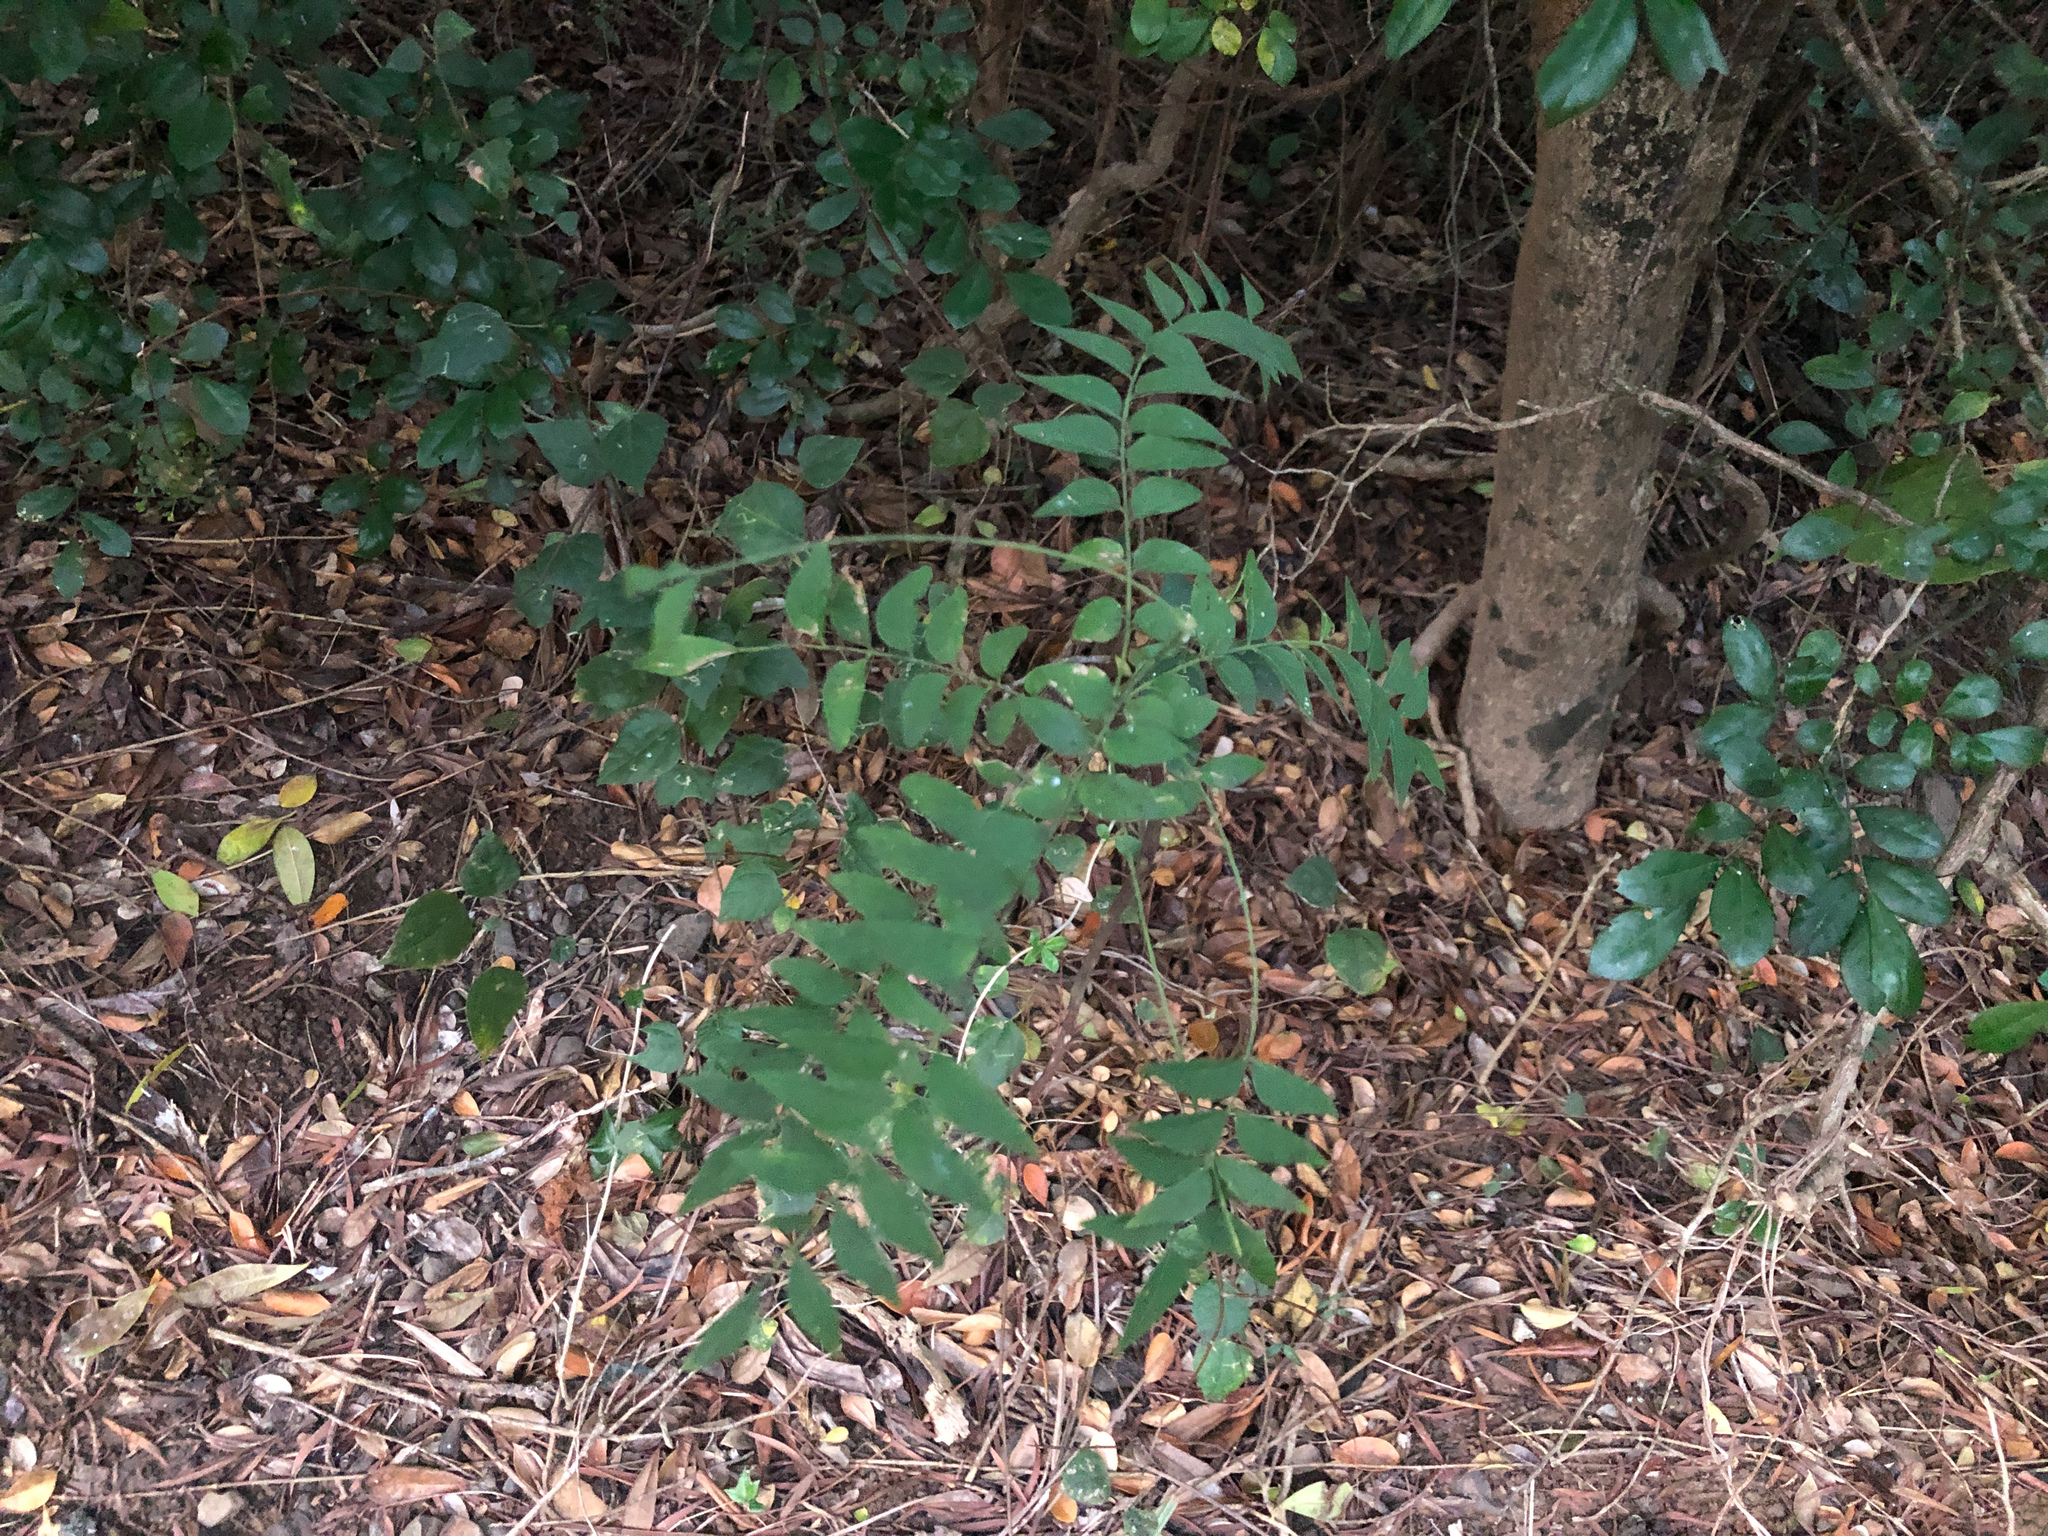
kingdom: Plantae
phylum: Tracheophyta
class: Magnoliopsida
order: Sapindales
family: Rutaceae
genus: Clausena
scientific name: Clausena excavata
